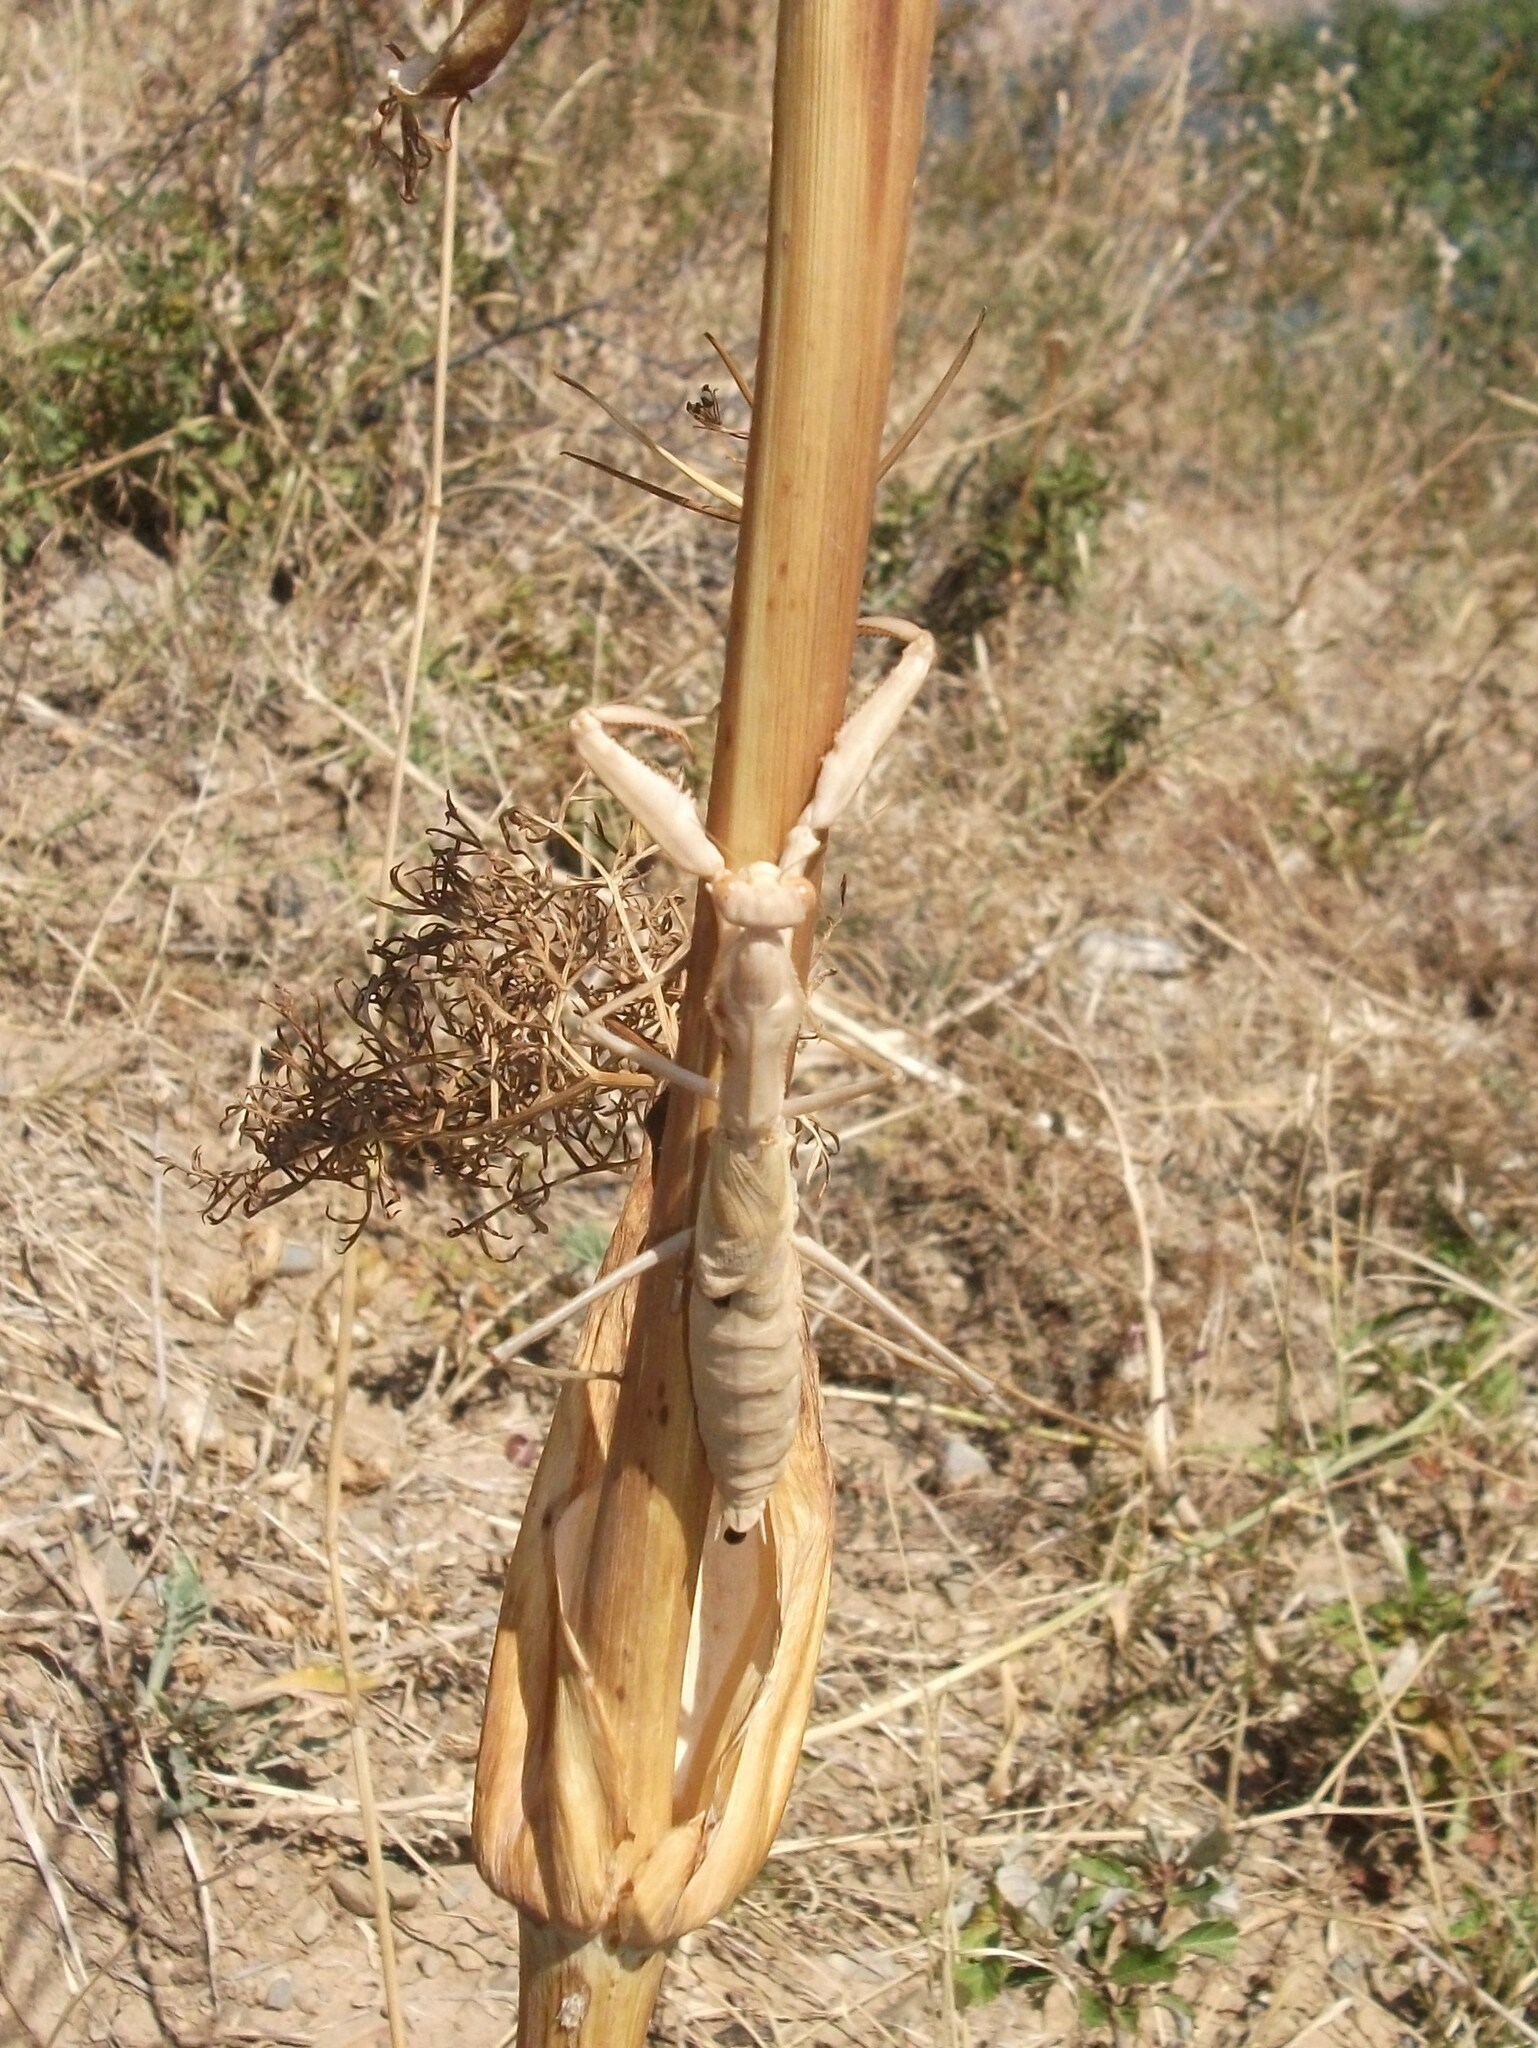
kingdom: Animalia
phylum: Arthropoda
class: Insecta
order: Mantodea
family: Rivetinidae
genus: Bolivaria
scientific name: Bolivaria brachyptera
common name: Bolivar's short winged mantis
